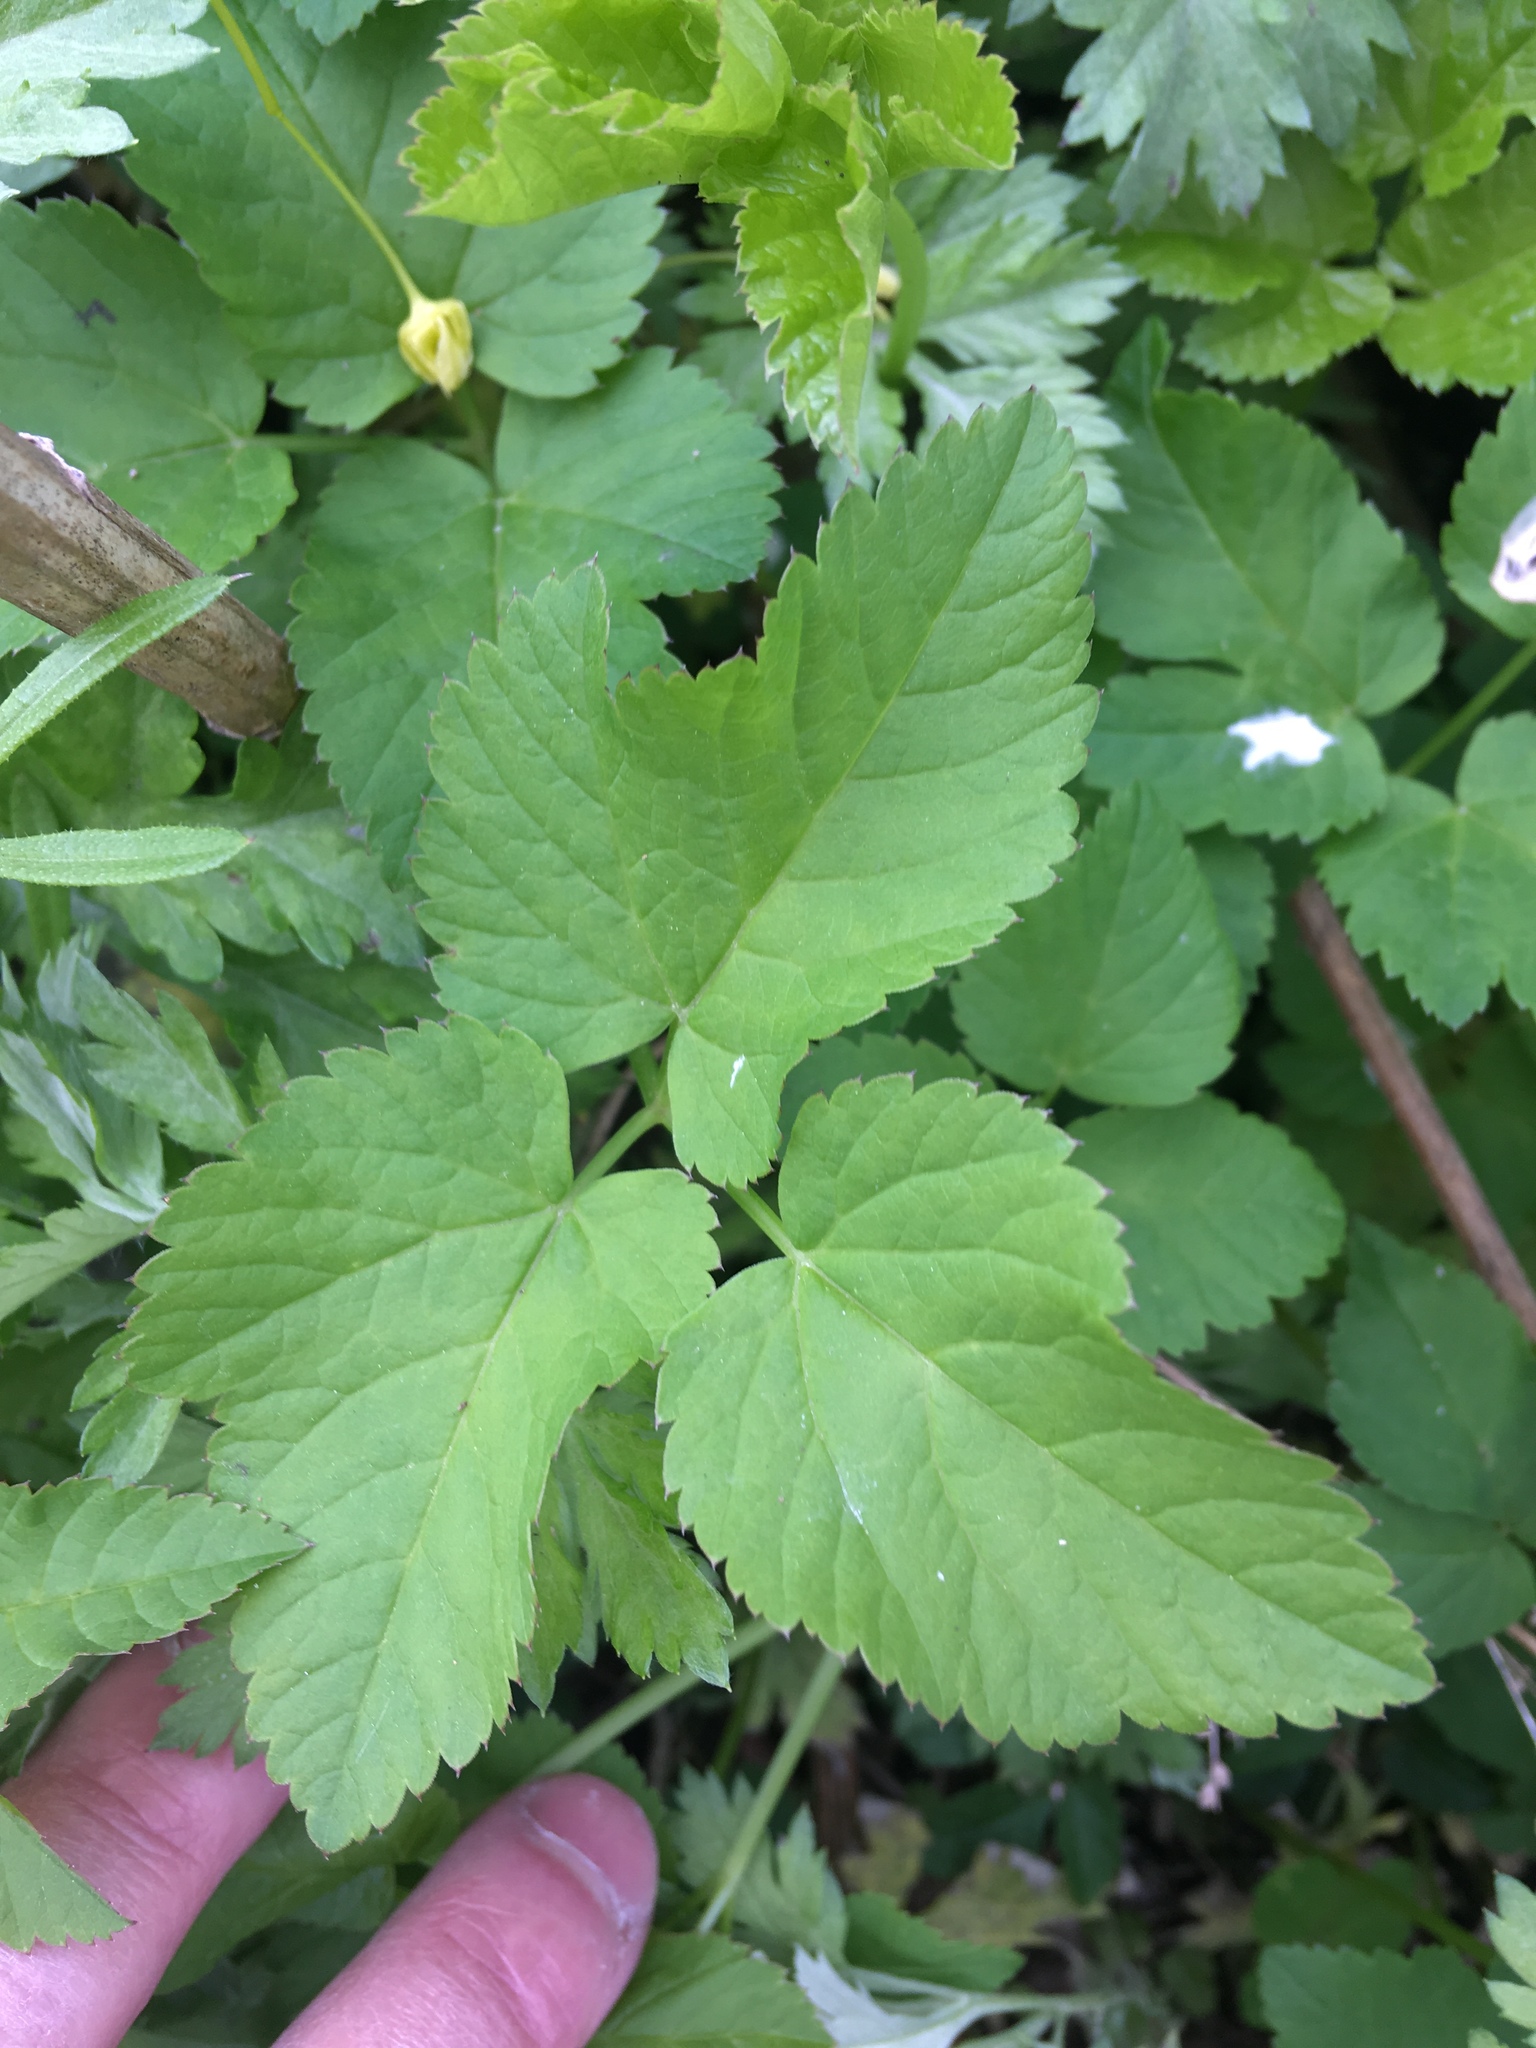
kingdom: Plantae
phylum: Tracheophyta
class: Magnoliopsida
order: Apiales
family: Apiaceae
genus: Aegopodium
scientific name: Aegopodium podagraria
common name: Ground-elder
